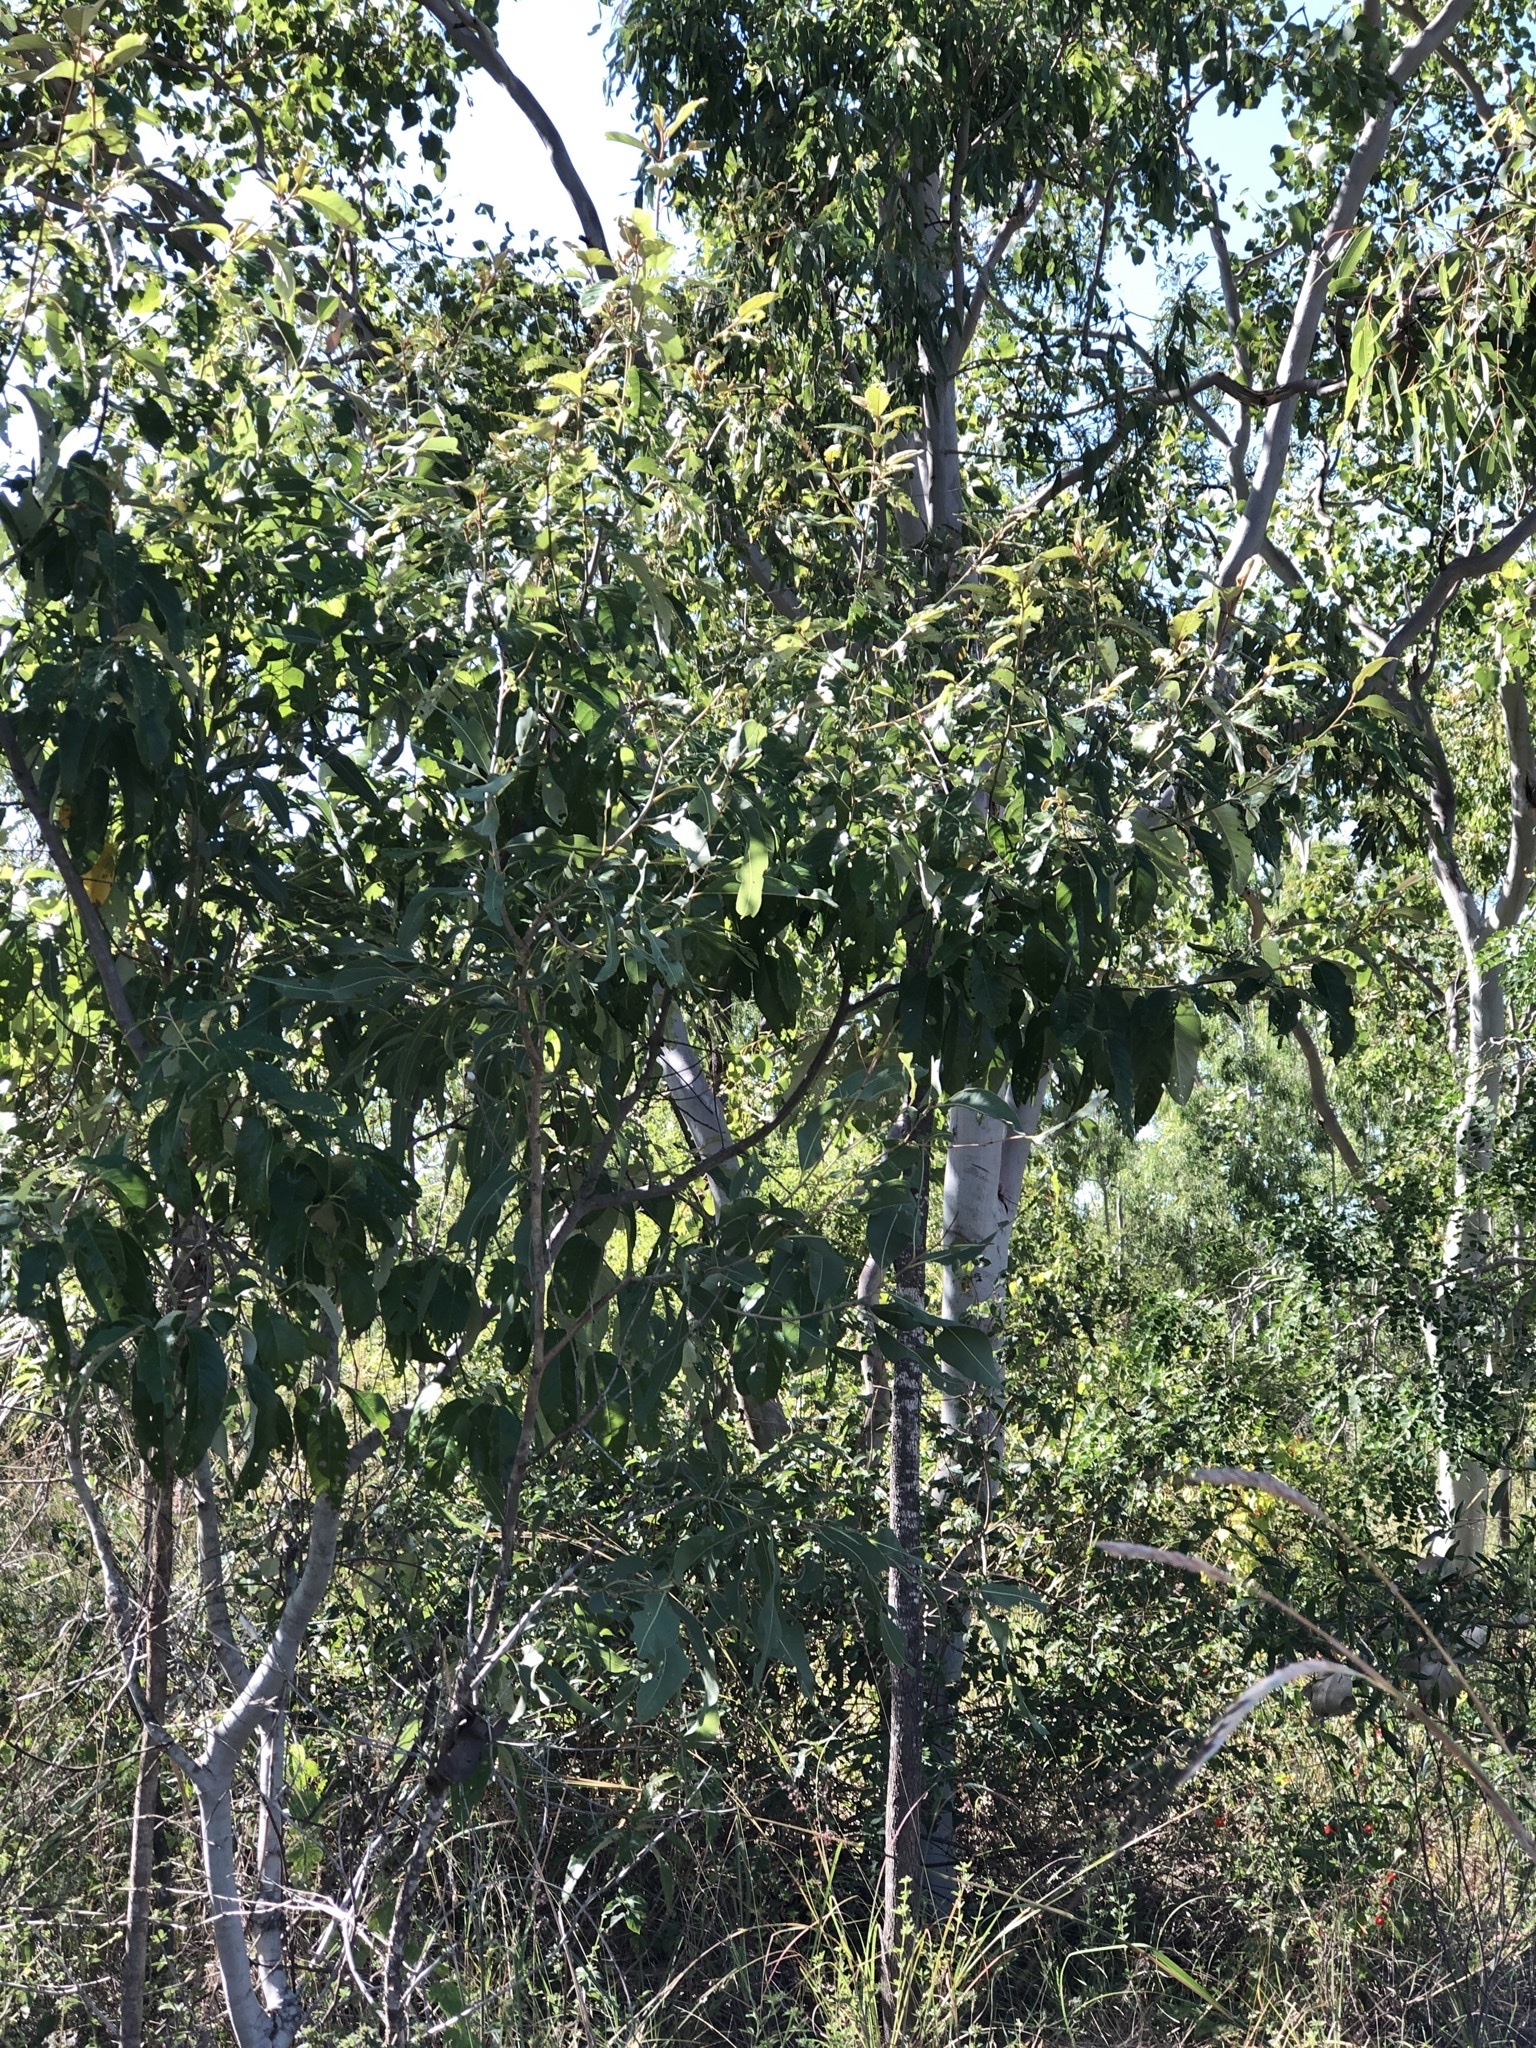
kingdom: Plantae
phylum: Tracheophyta
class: Magnoliopsida
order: Rosales
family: Rhamnaceae
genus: Alphitonia
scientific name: Alphitonia excelsa
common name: Red ash
